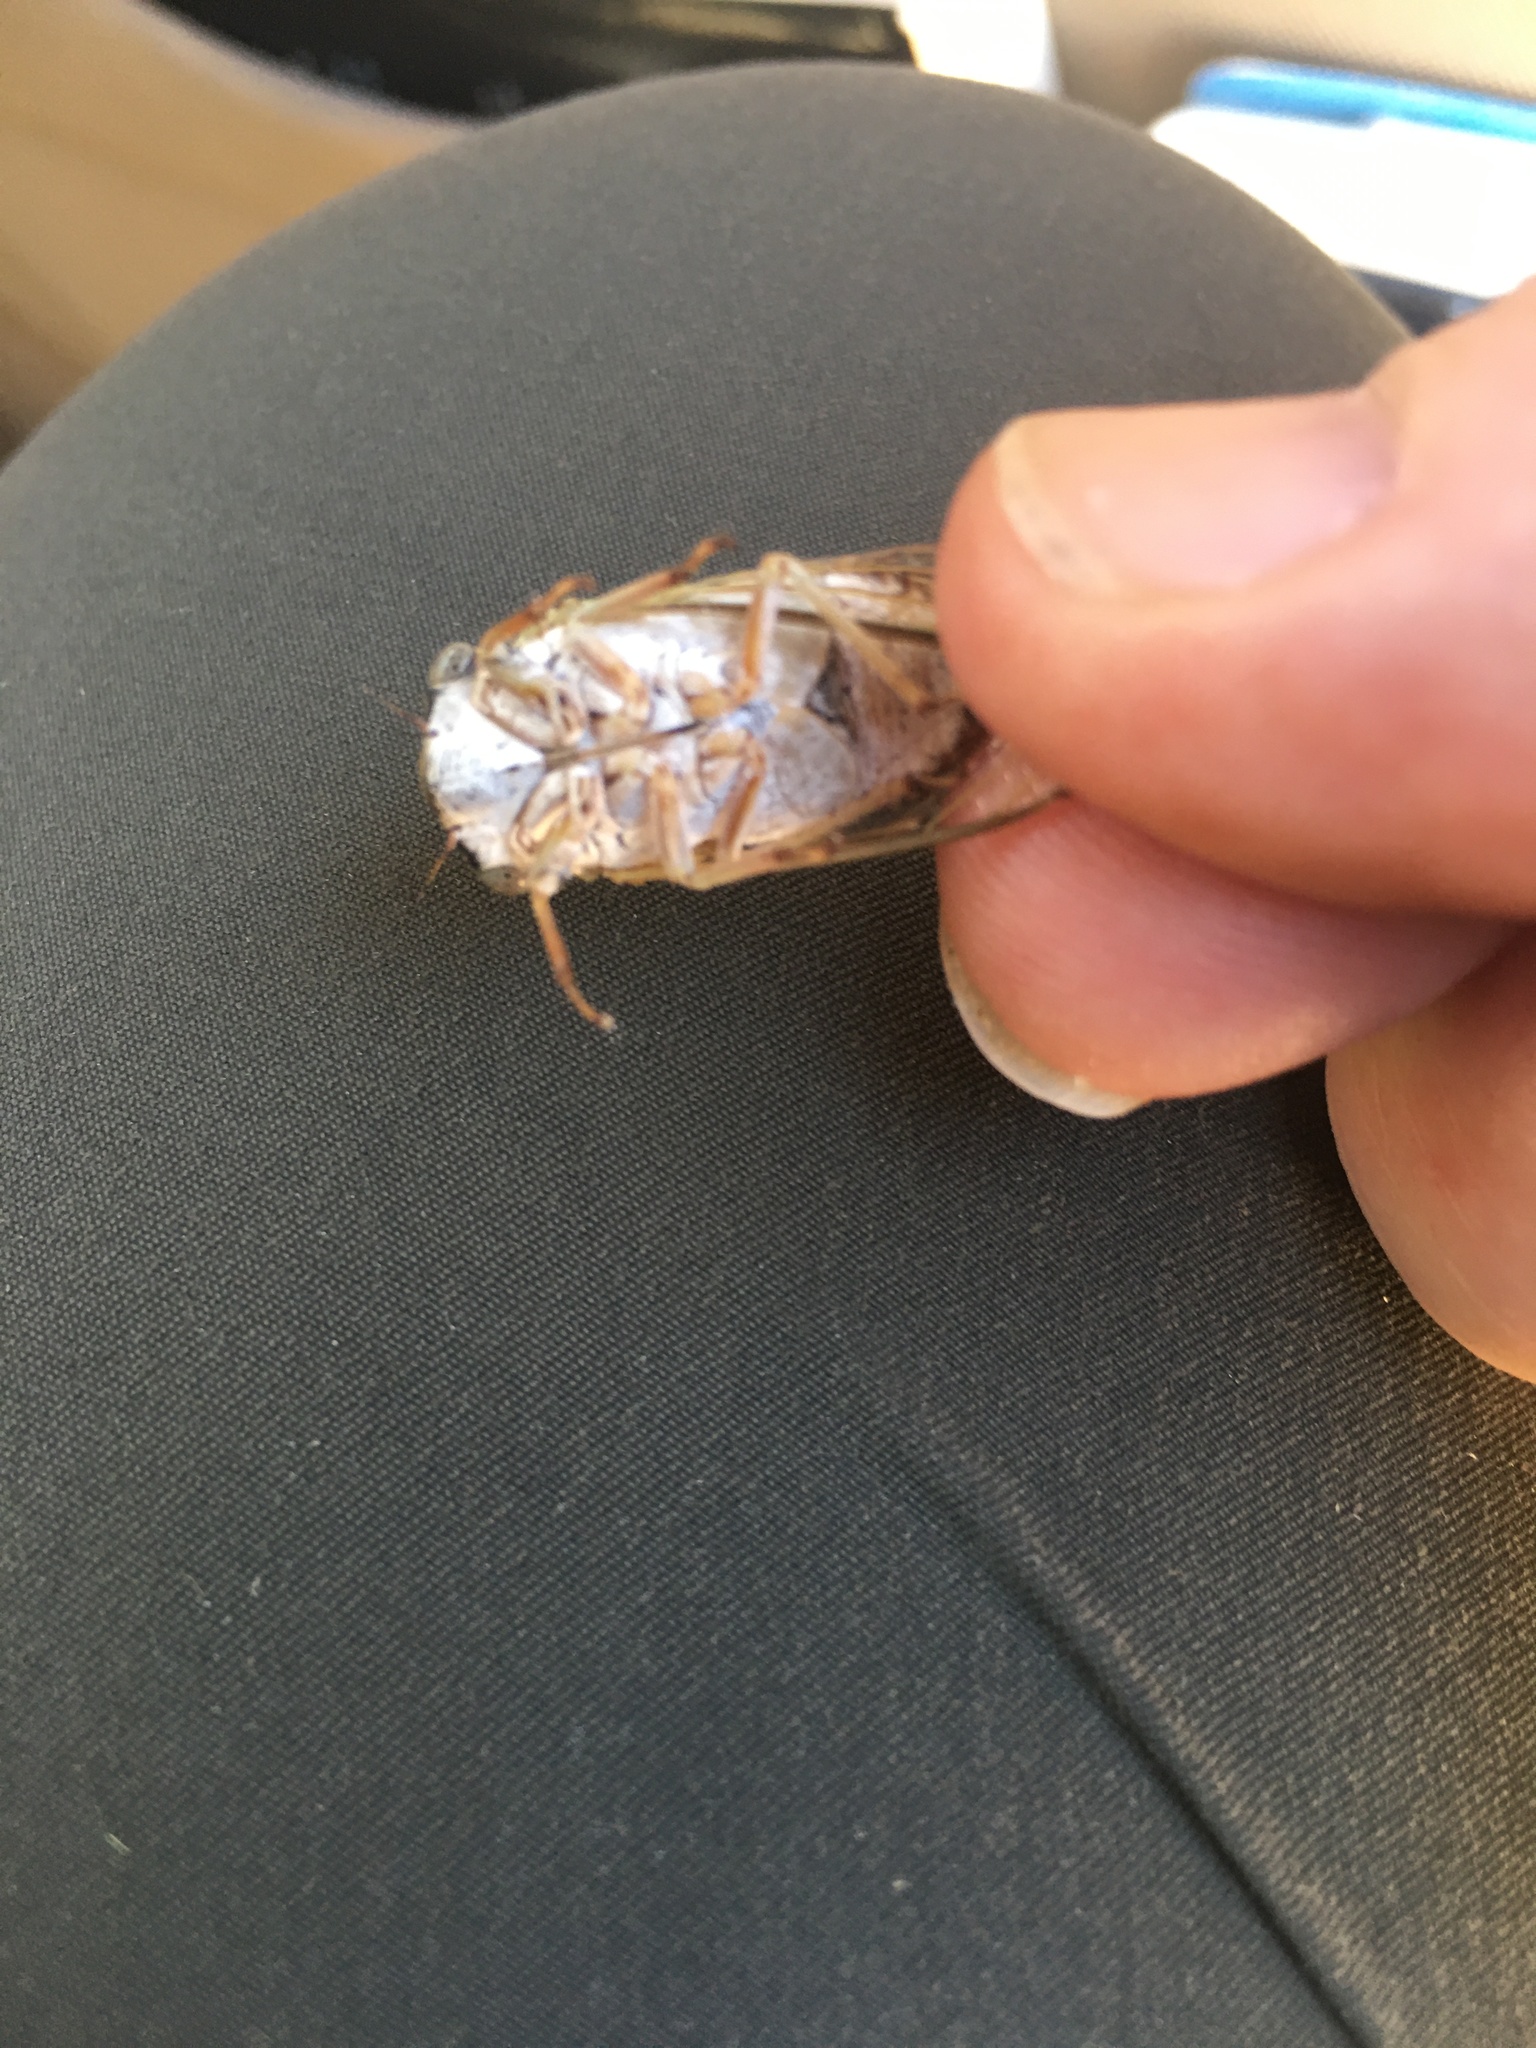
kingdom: Animalia
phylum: Arthropoda
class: Insecta
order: Hemiptera
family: Cicadidae
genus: Diceroprocta
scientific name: Diceroprocta texana
